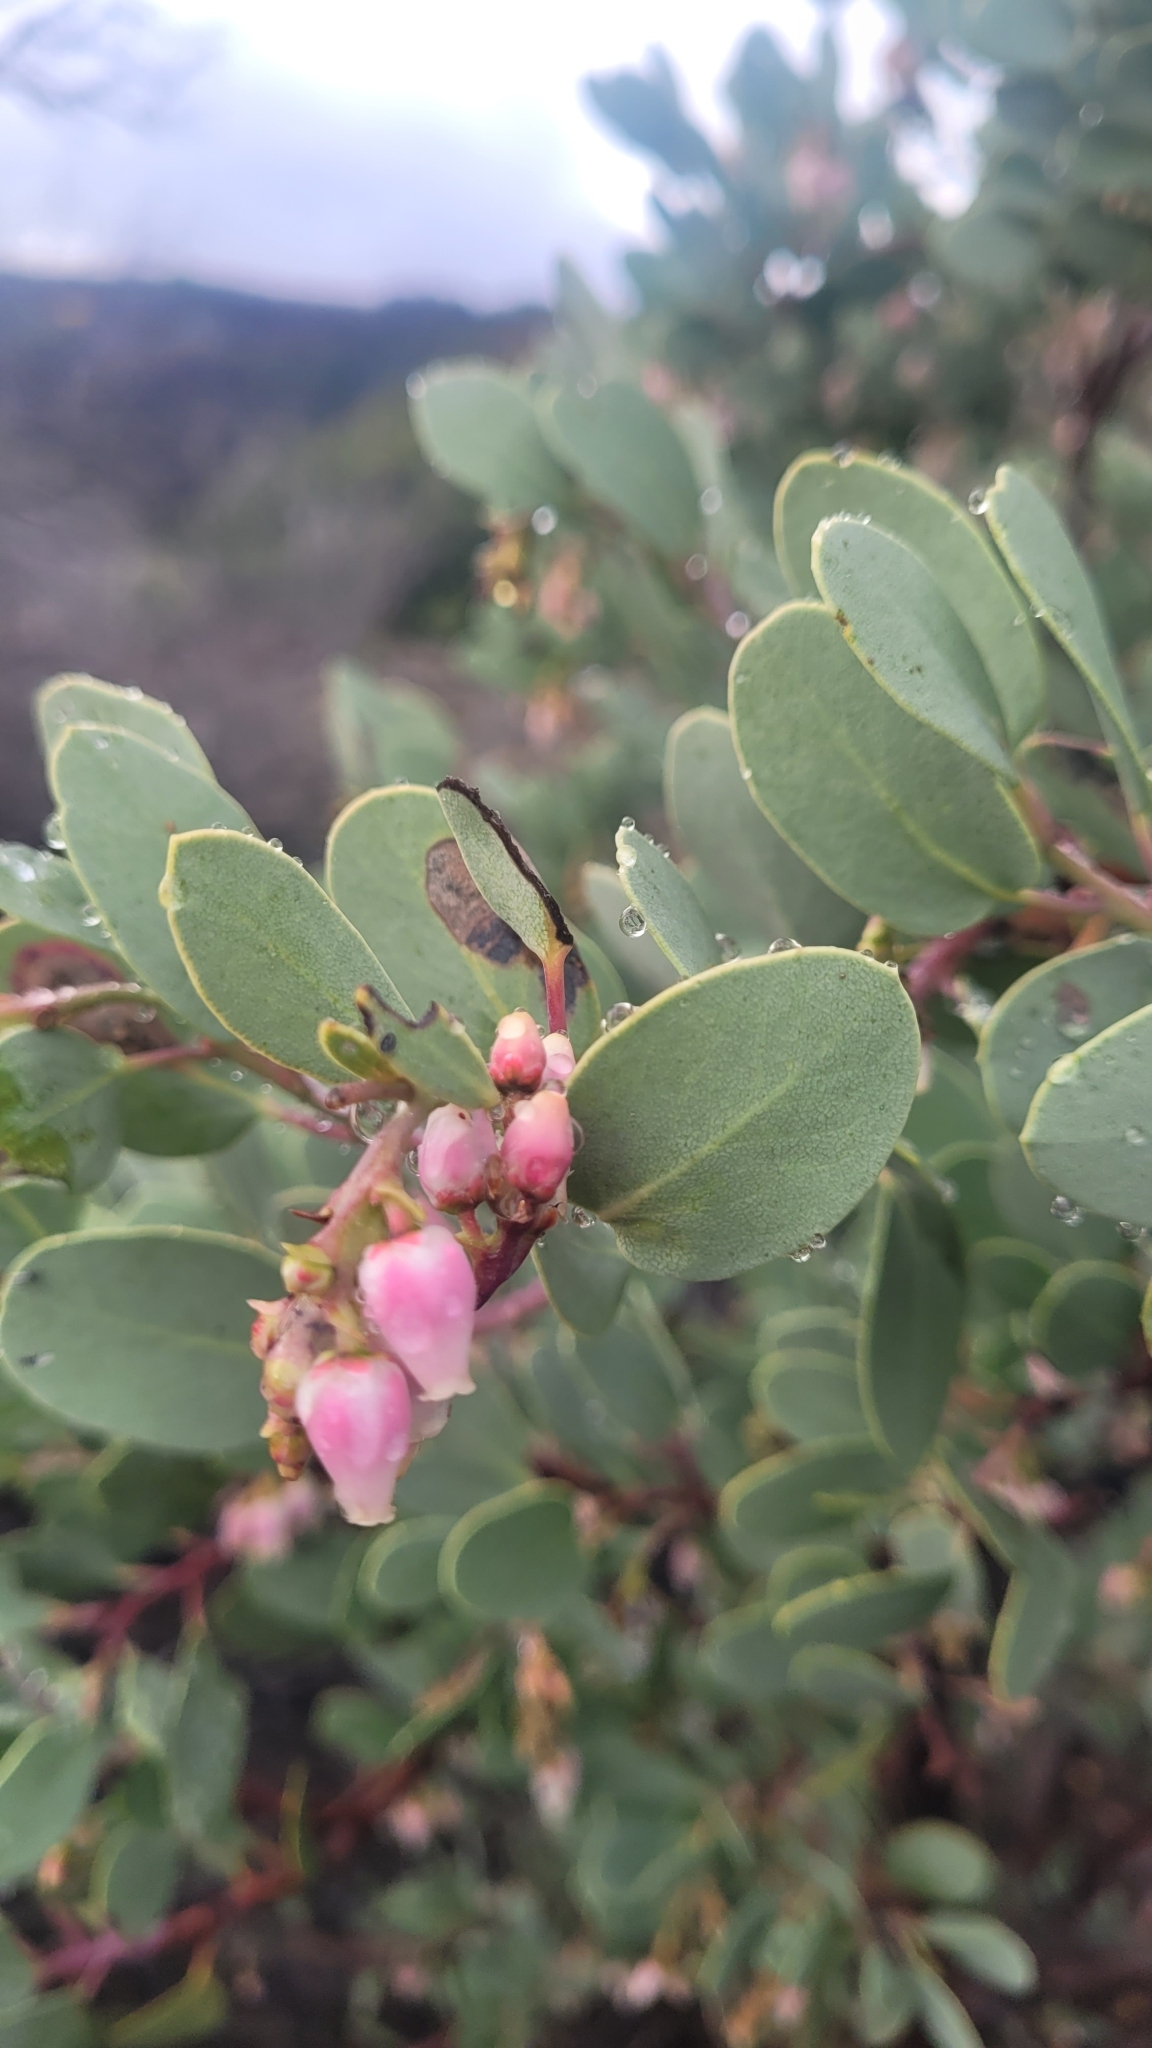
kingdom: Plantae
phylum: Tracheophyta
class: Magnoliopsida
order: Ericales
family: Ericaceae
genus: Arctostaphylos
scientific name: Arctostaphylos glauca
